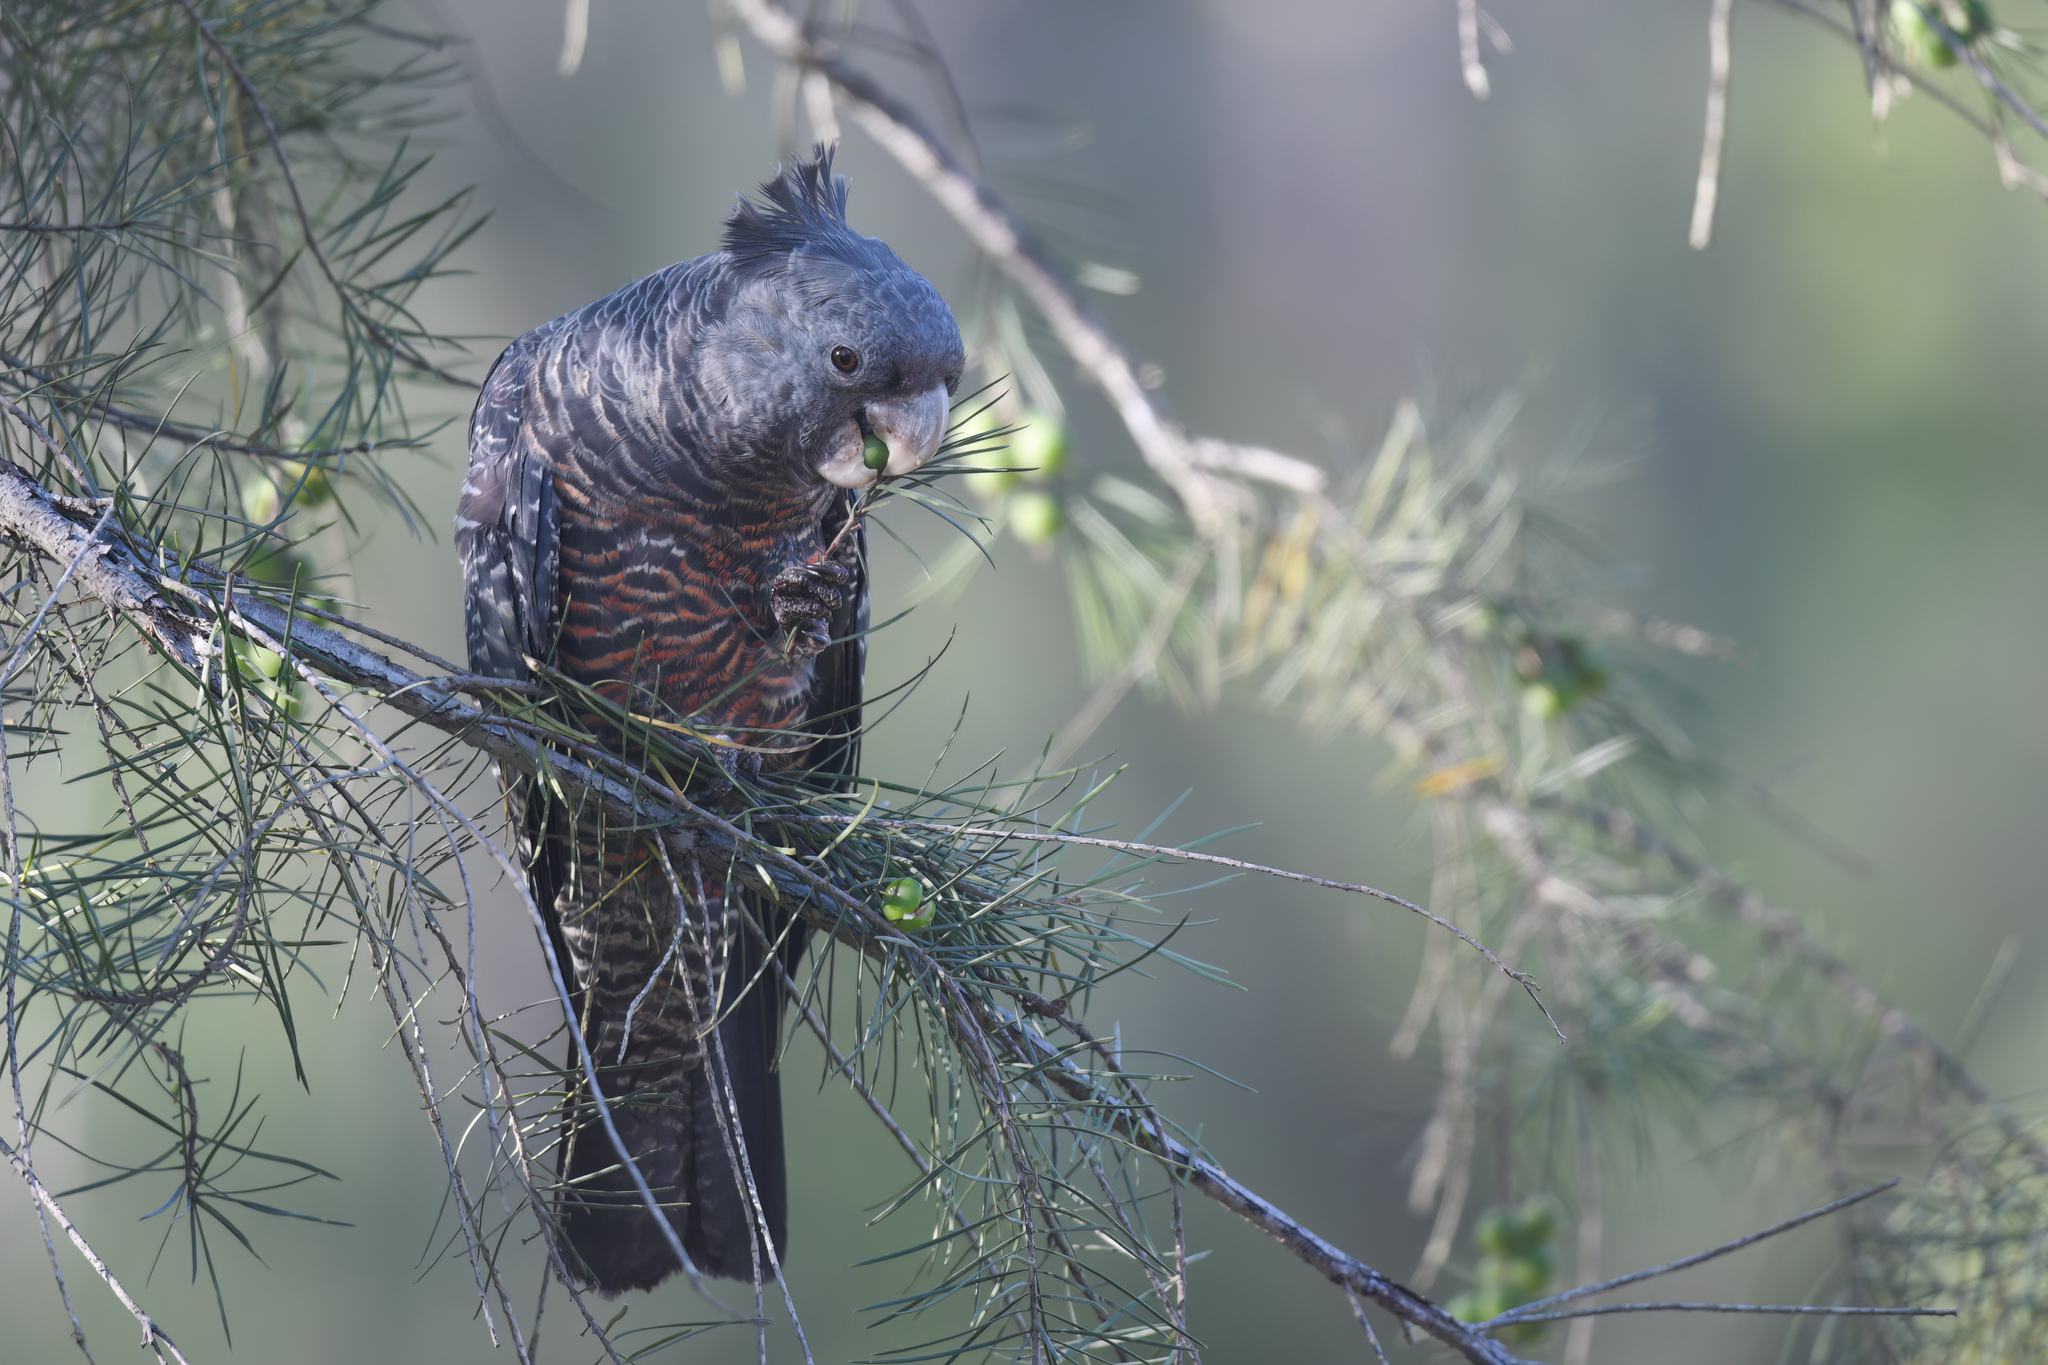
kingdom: Animalia
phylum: Chordata
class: Aves
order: Psittaciformes
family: Psittacidae
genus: Callocephalon
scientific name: Callocephalon fimbriatum
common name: Gang-gang cockatoo
